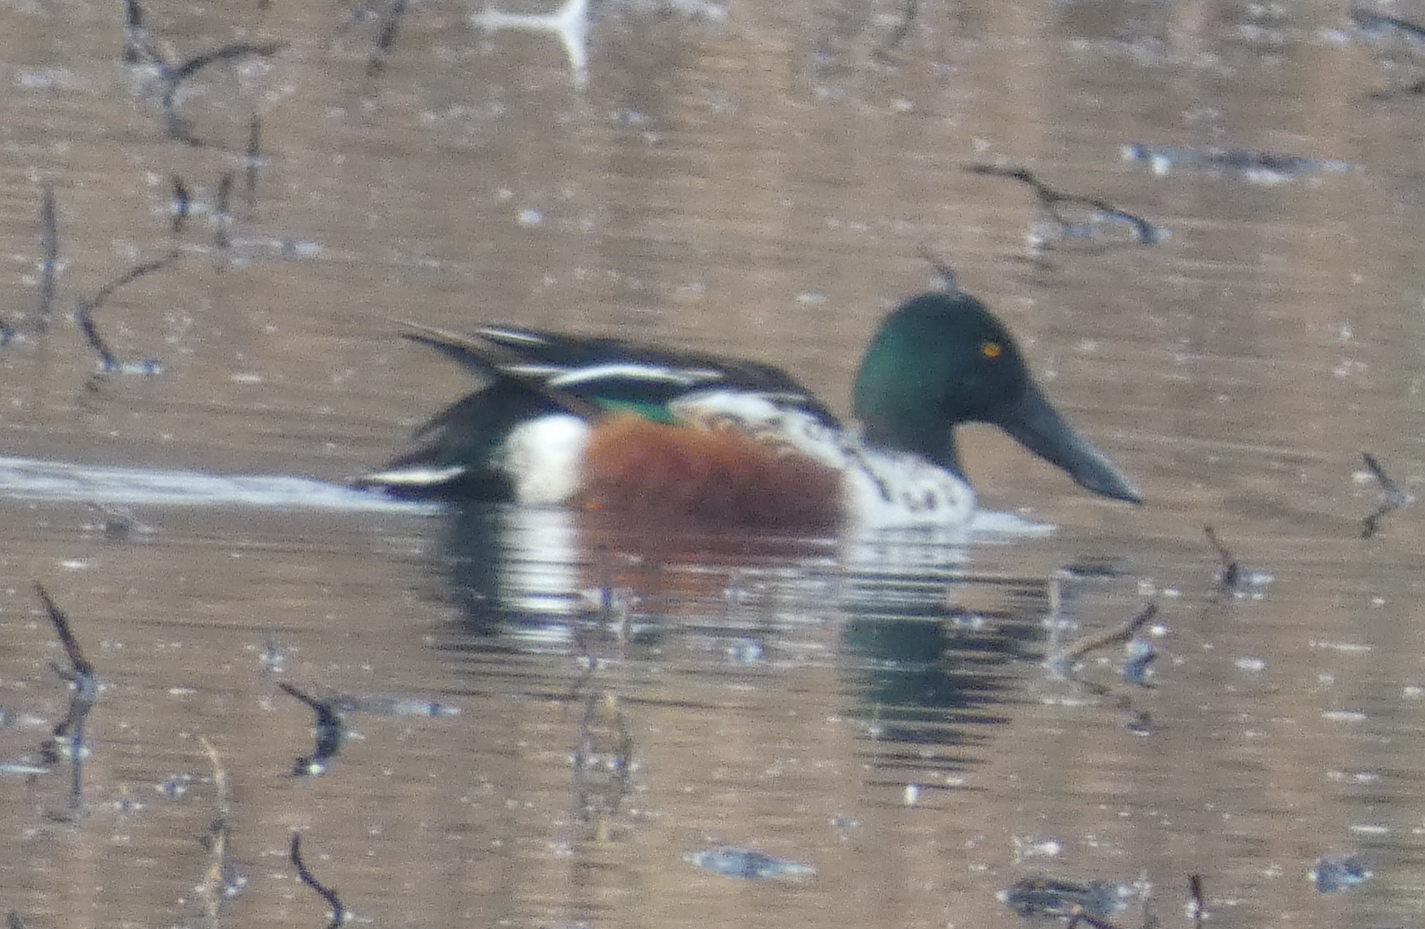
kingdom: Animalia
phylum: Chordata
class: Aves
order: Anseriformes
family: Anatidae
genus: Spatula
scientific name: Spatula clypeata
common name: Northern shoveler
